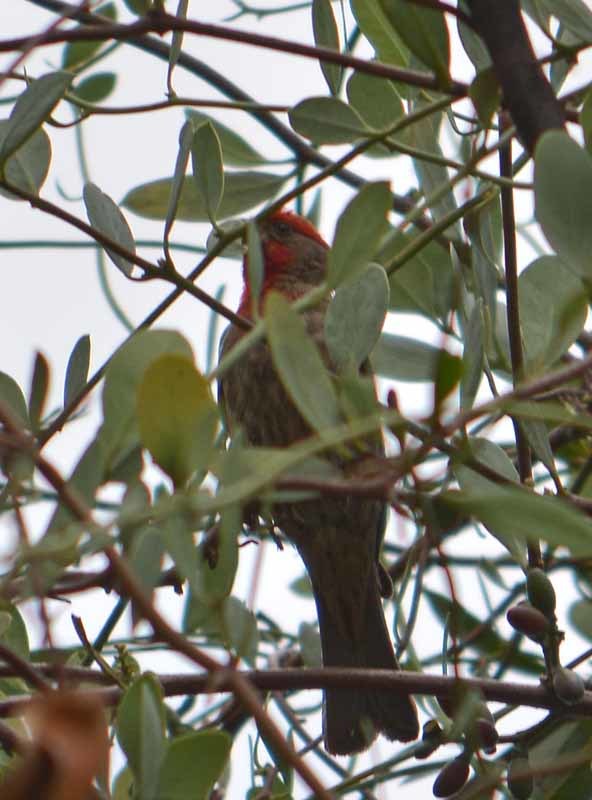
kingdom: Animalia
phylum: Chordata
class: Aves
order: Passeriformes
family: Fringillidae
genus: Haemorhous
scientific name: Haemorhous mexicanus
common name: House finch
